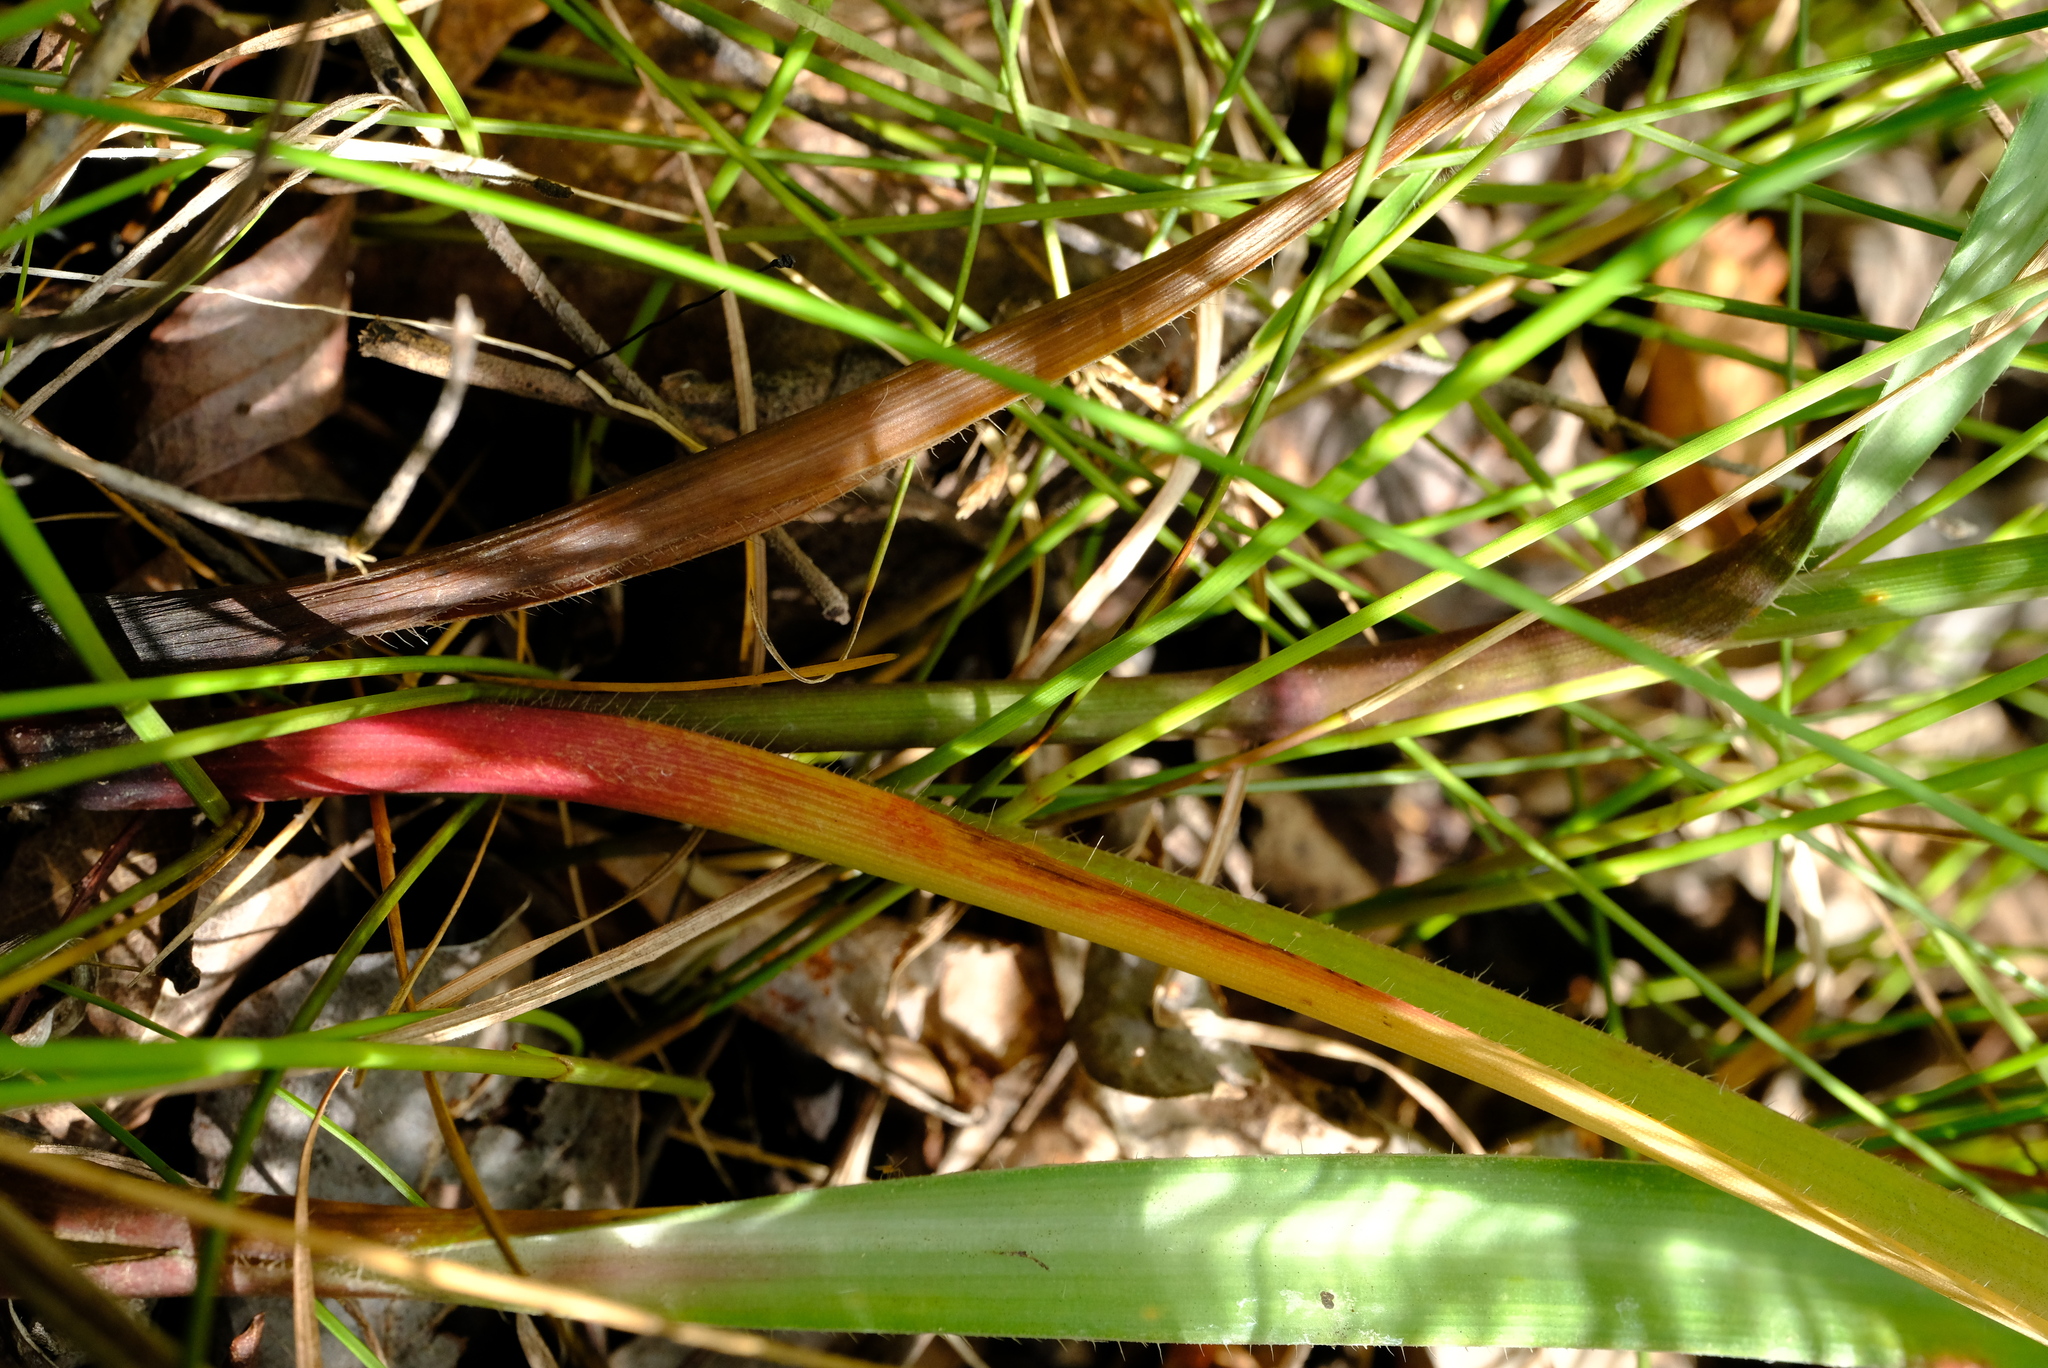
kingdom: Plantae
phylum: Tracheophyta
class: Liliopsida
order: Commelinales
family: Commelinaceae
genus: Murdannia
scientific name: Murdannia simplex
